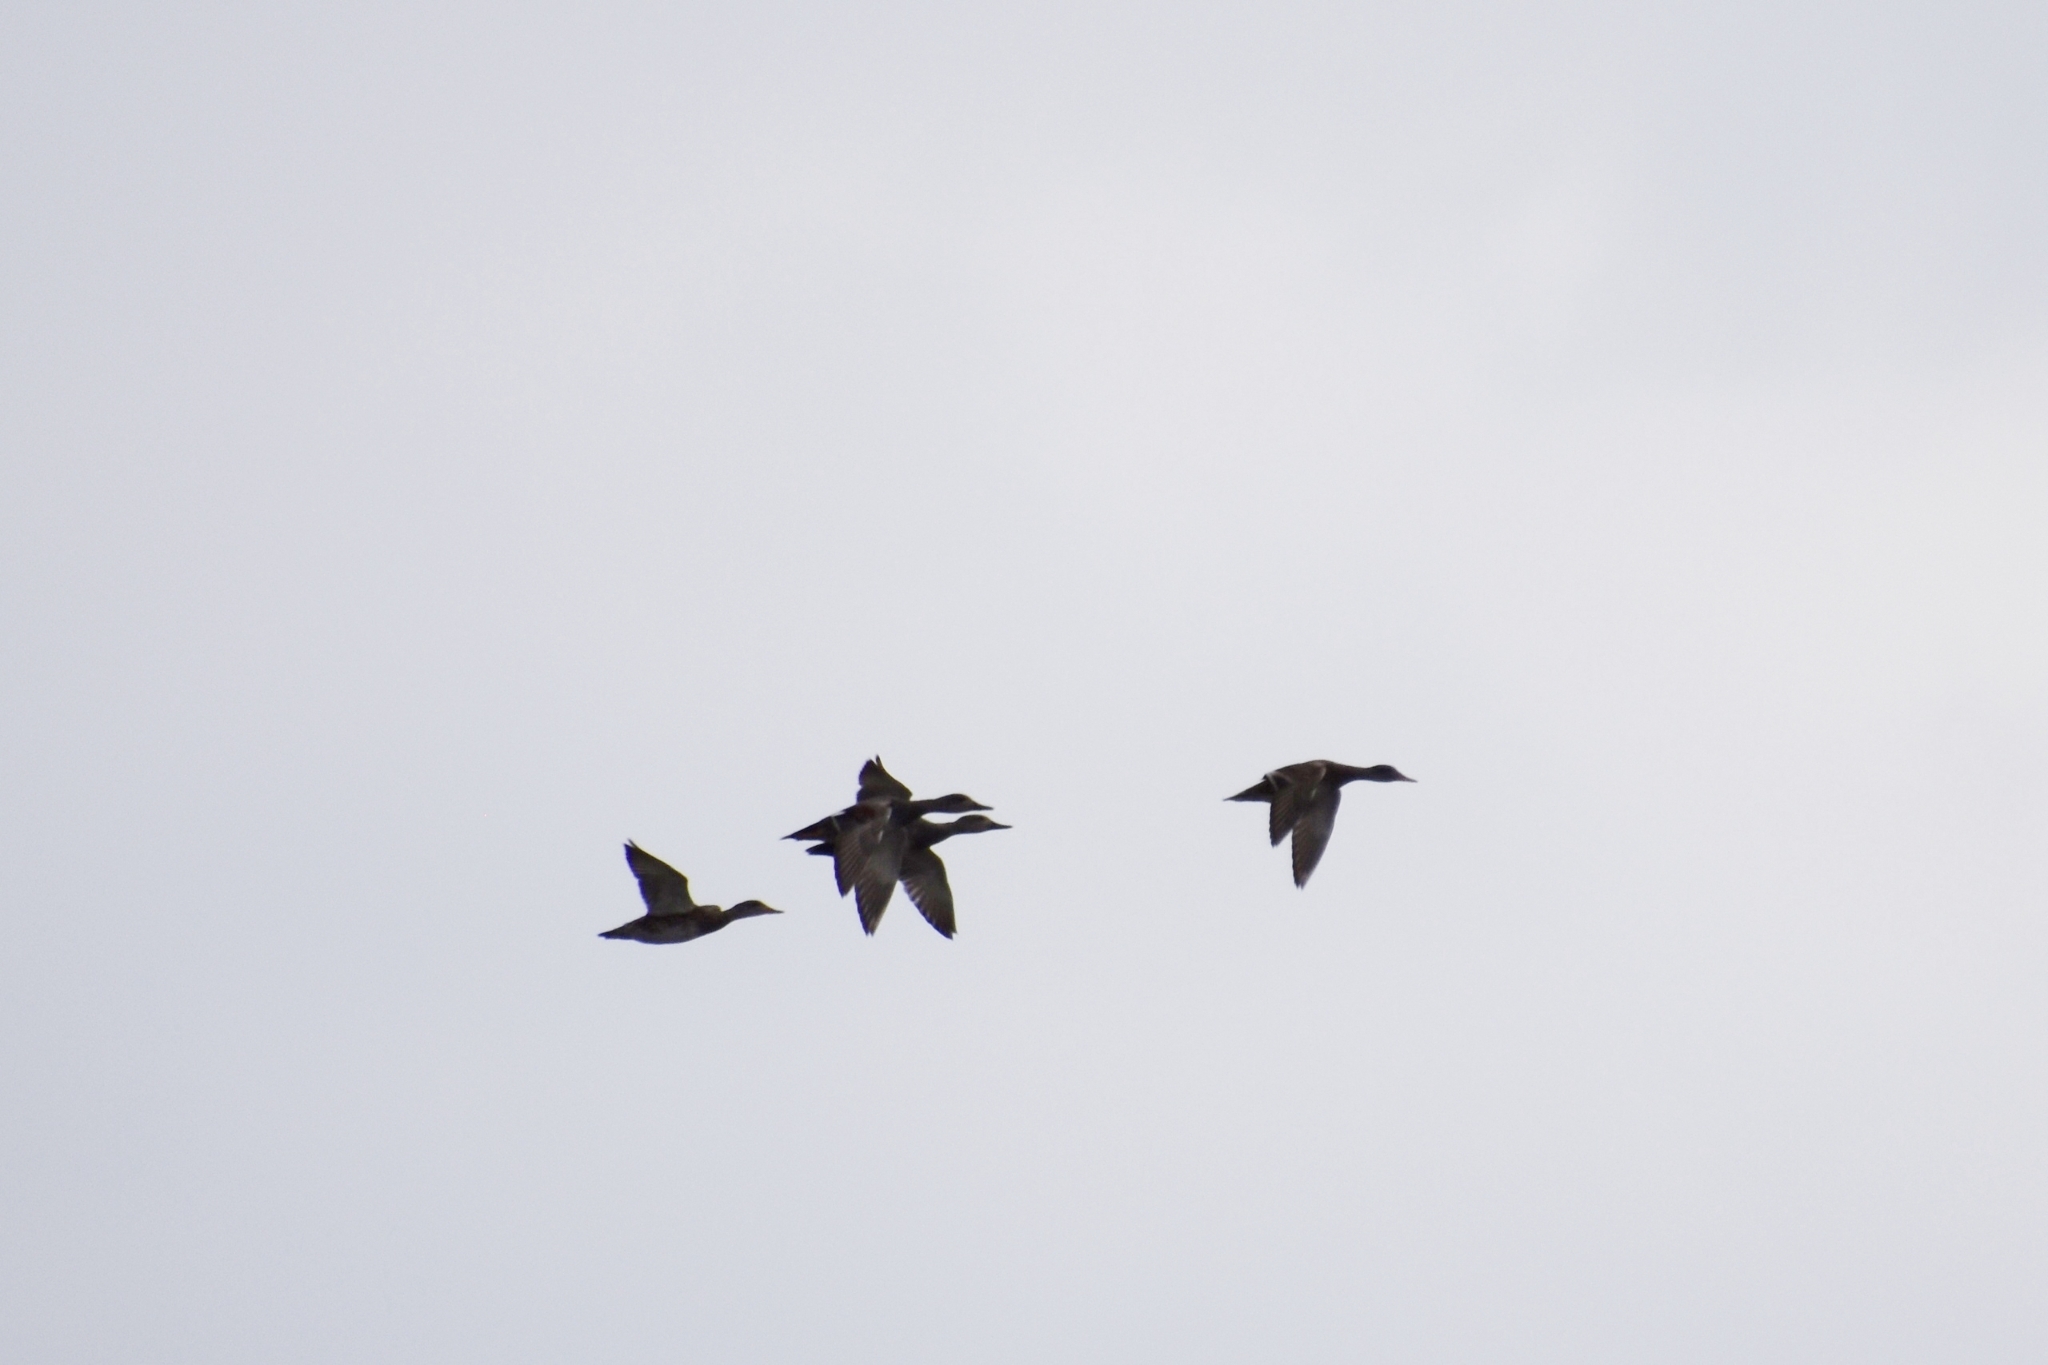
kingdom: Animalia
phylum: Chordata
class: Aves
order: Anseriformes
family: Anatidae
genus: Mareca
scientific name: Mareca strepera
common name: Gadwall
